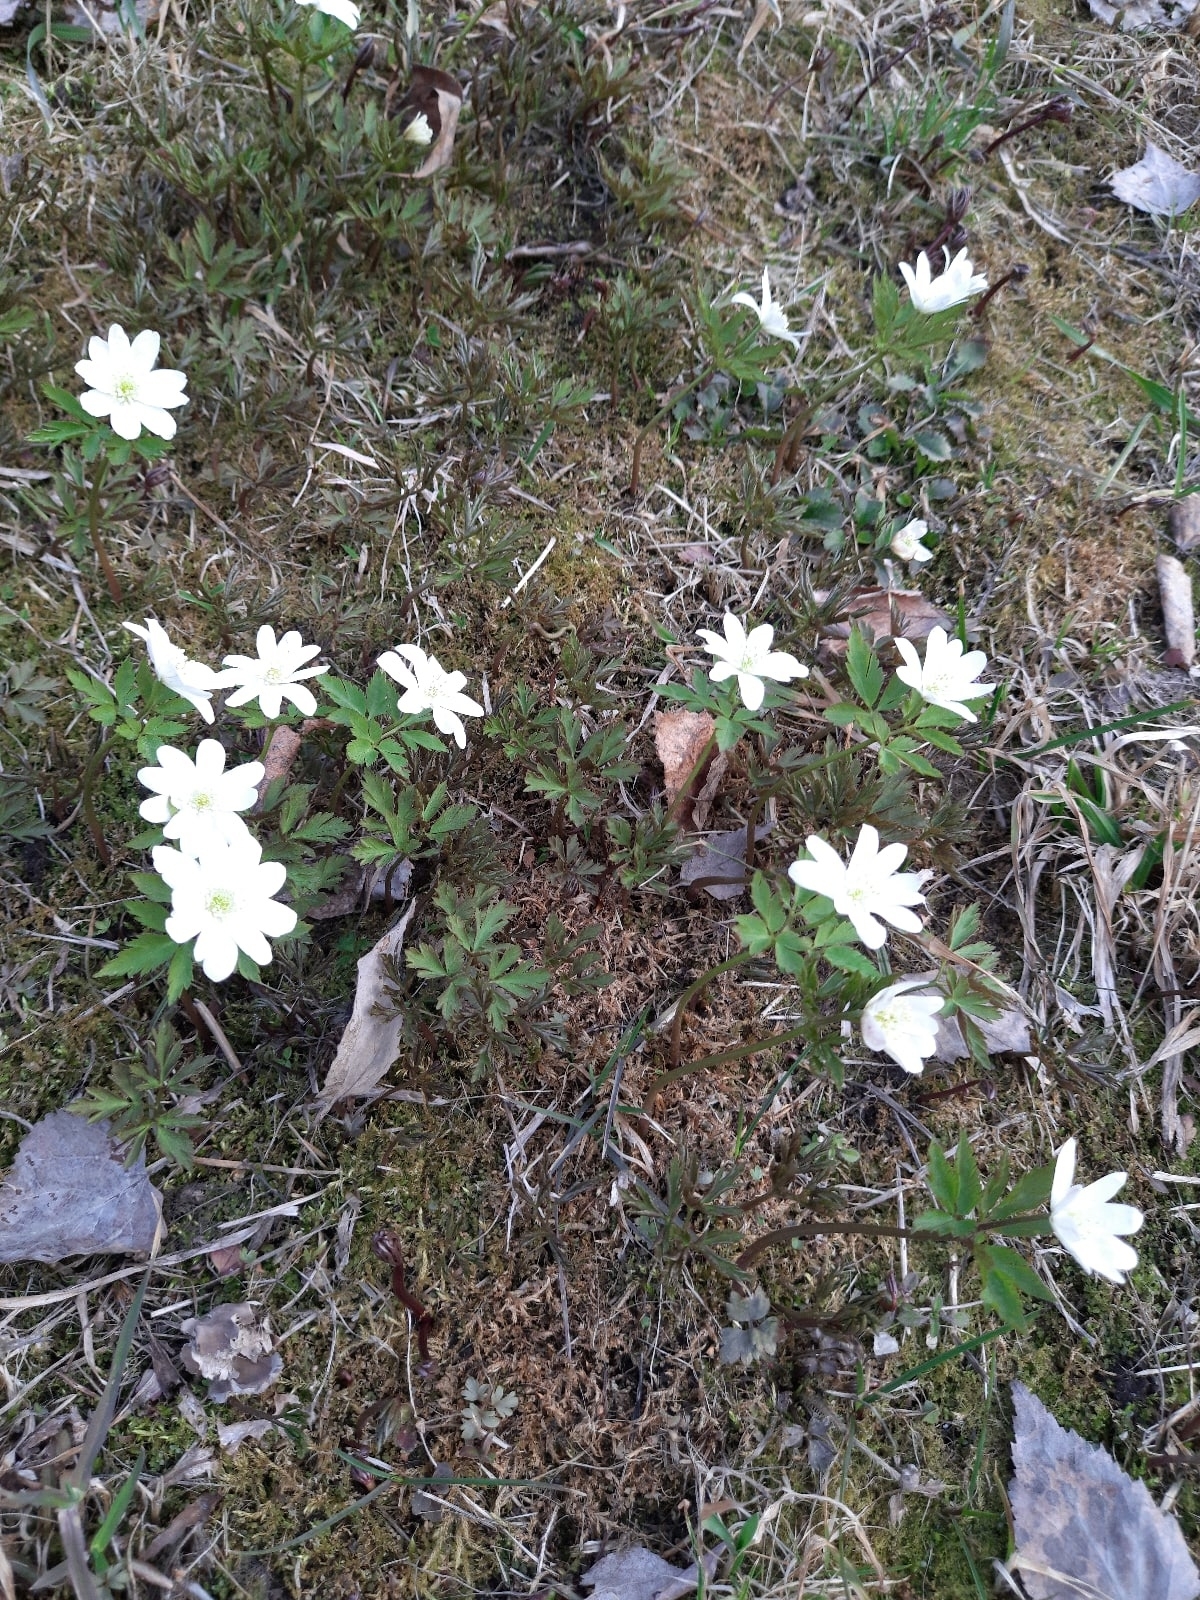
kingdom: Plantae
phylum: Tracheophyta
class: Magnoliopsida
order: Ranunculales
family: Ranunculaceae
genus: Anemone
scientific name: Anemone altaica
